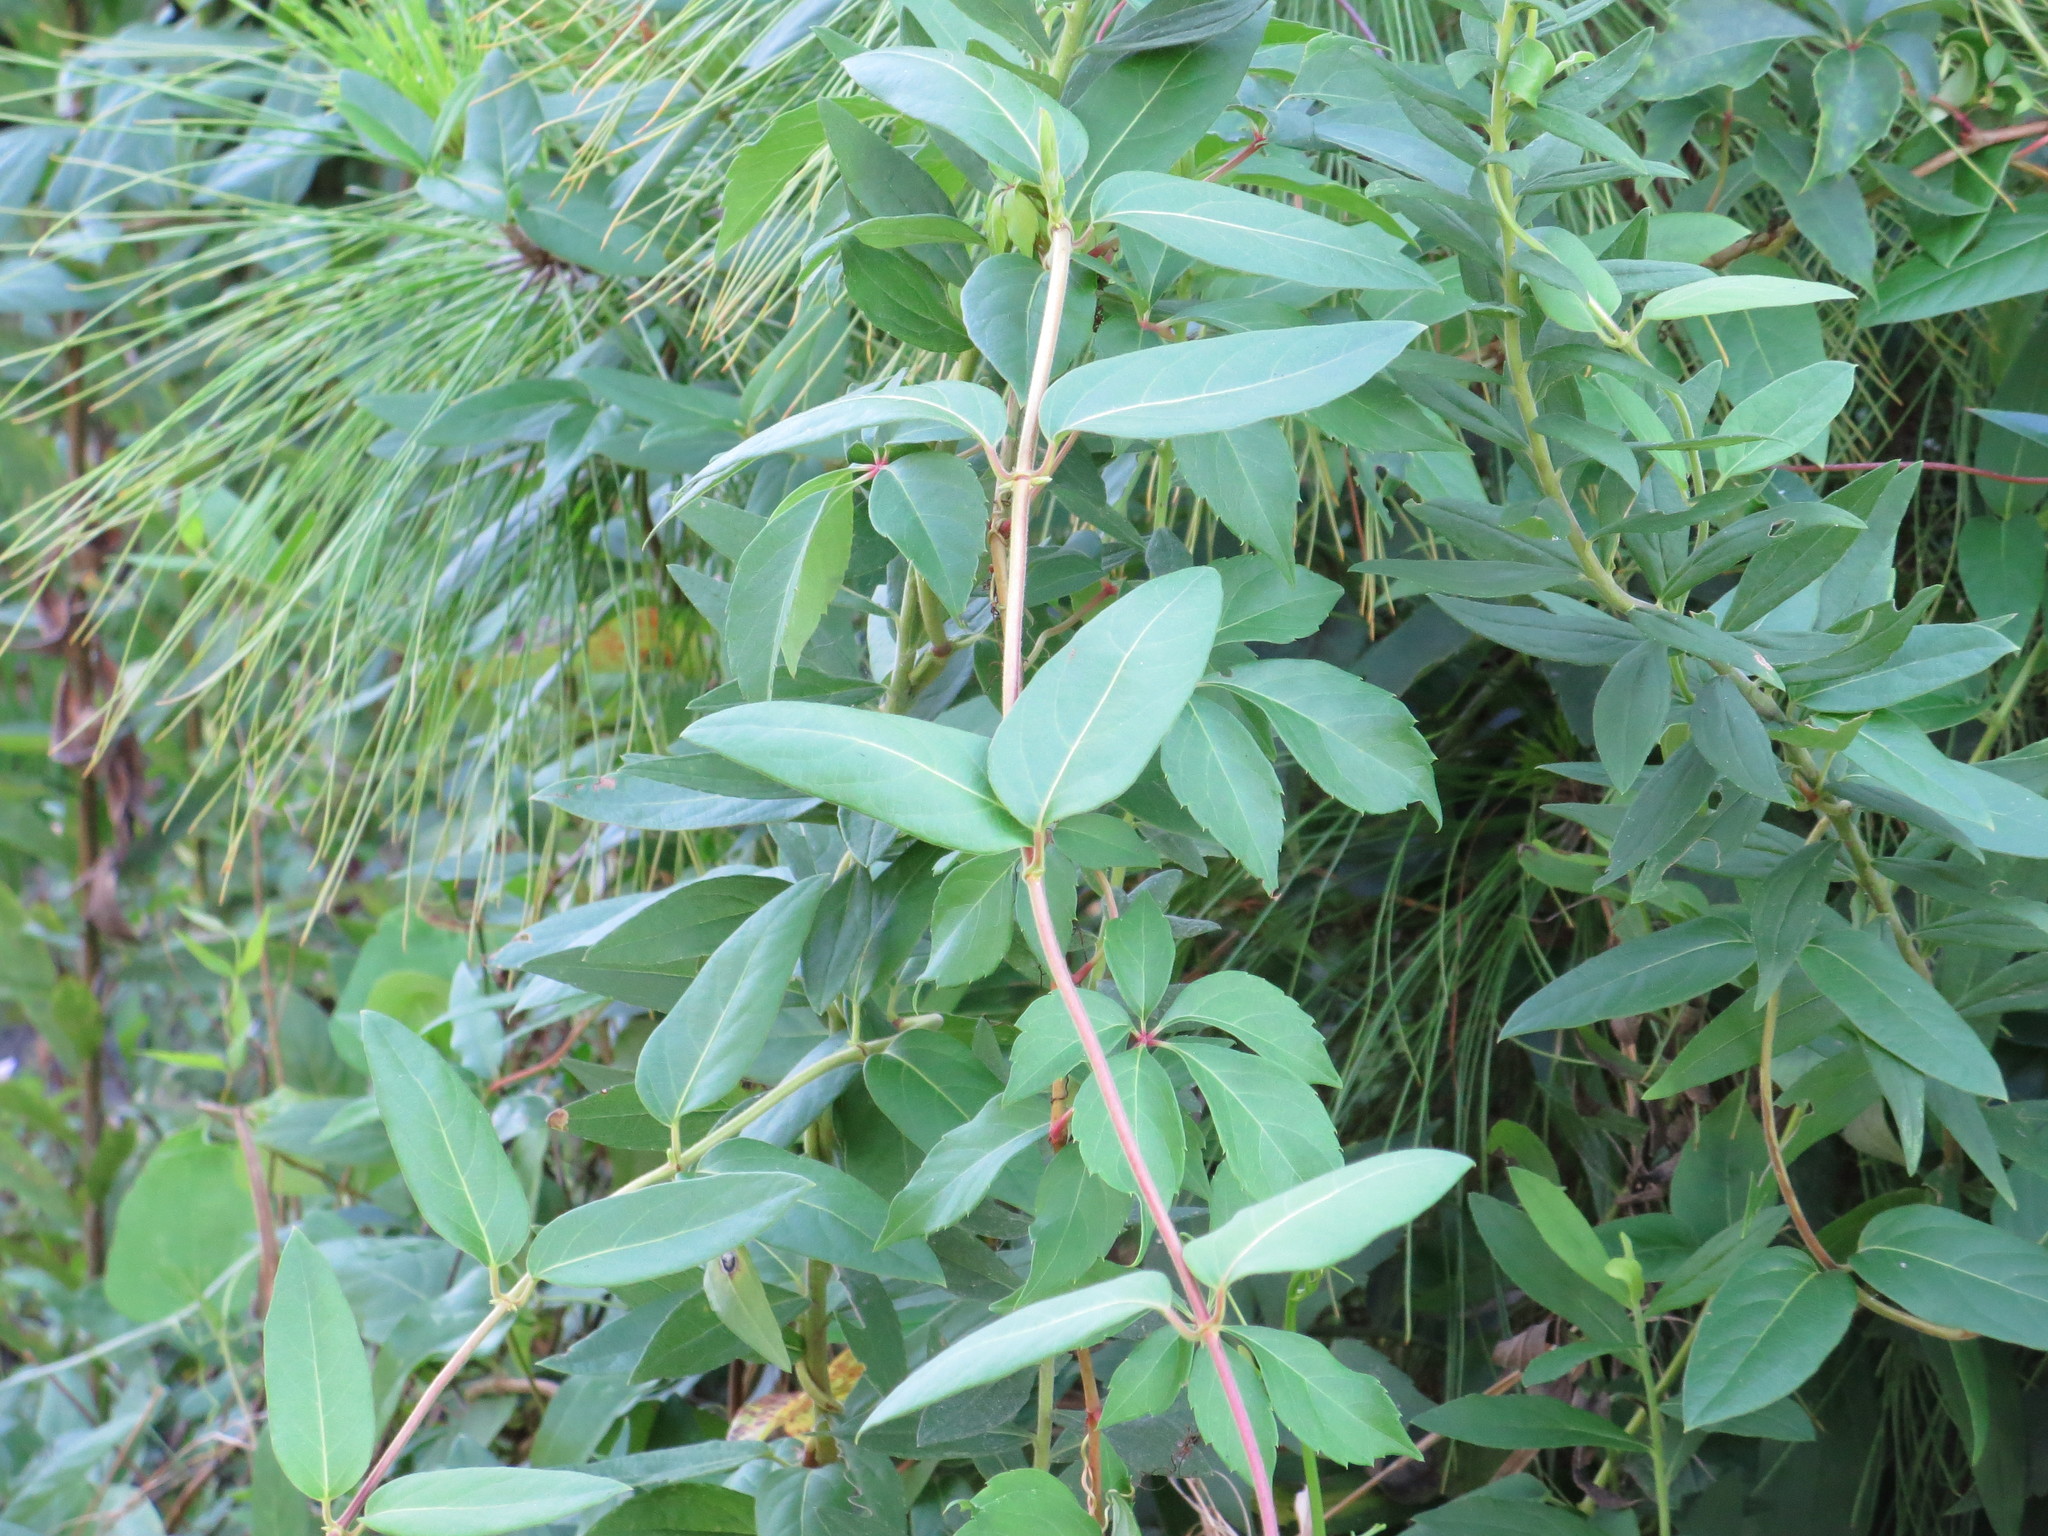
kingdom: Plantae
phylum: Tracheophyta
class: Magnoliopsida
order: Dipsacales
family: Caprifoliaceae
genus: Lonicera
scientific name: Lonicera japonica
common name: Japanese honeysuckle
